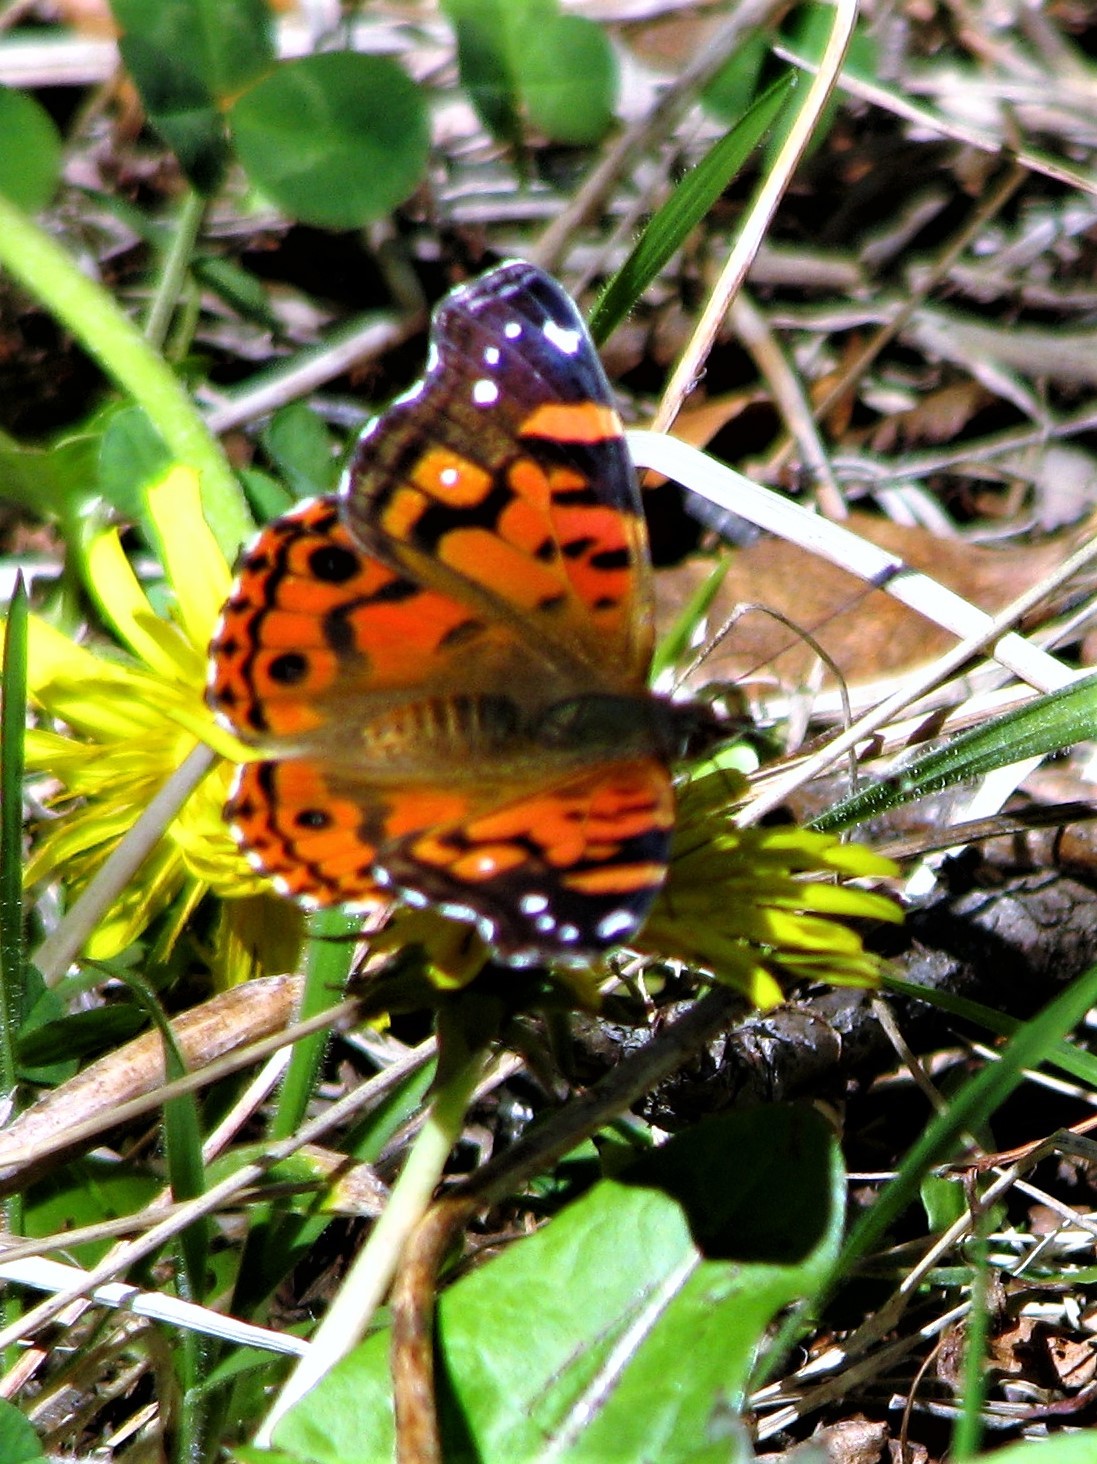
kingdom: Animalia
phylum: Arthropoda
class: Insecta
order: Lepidoptera
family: Nymphalidae
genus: Vanessa
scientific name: Vanessa terpsichore
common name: Chilean lady
